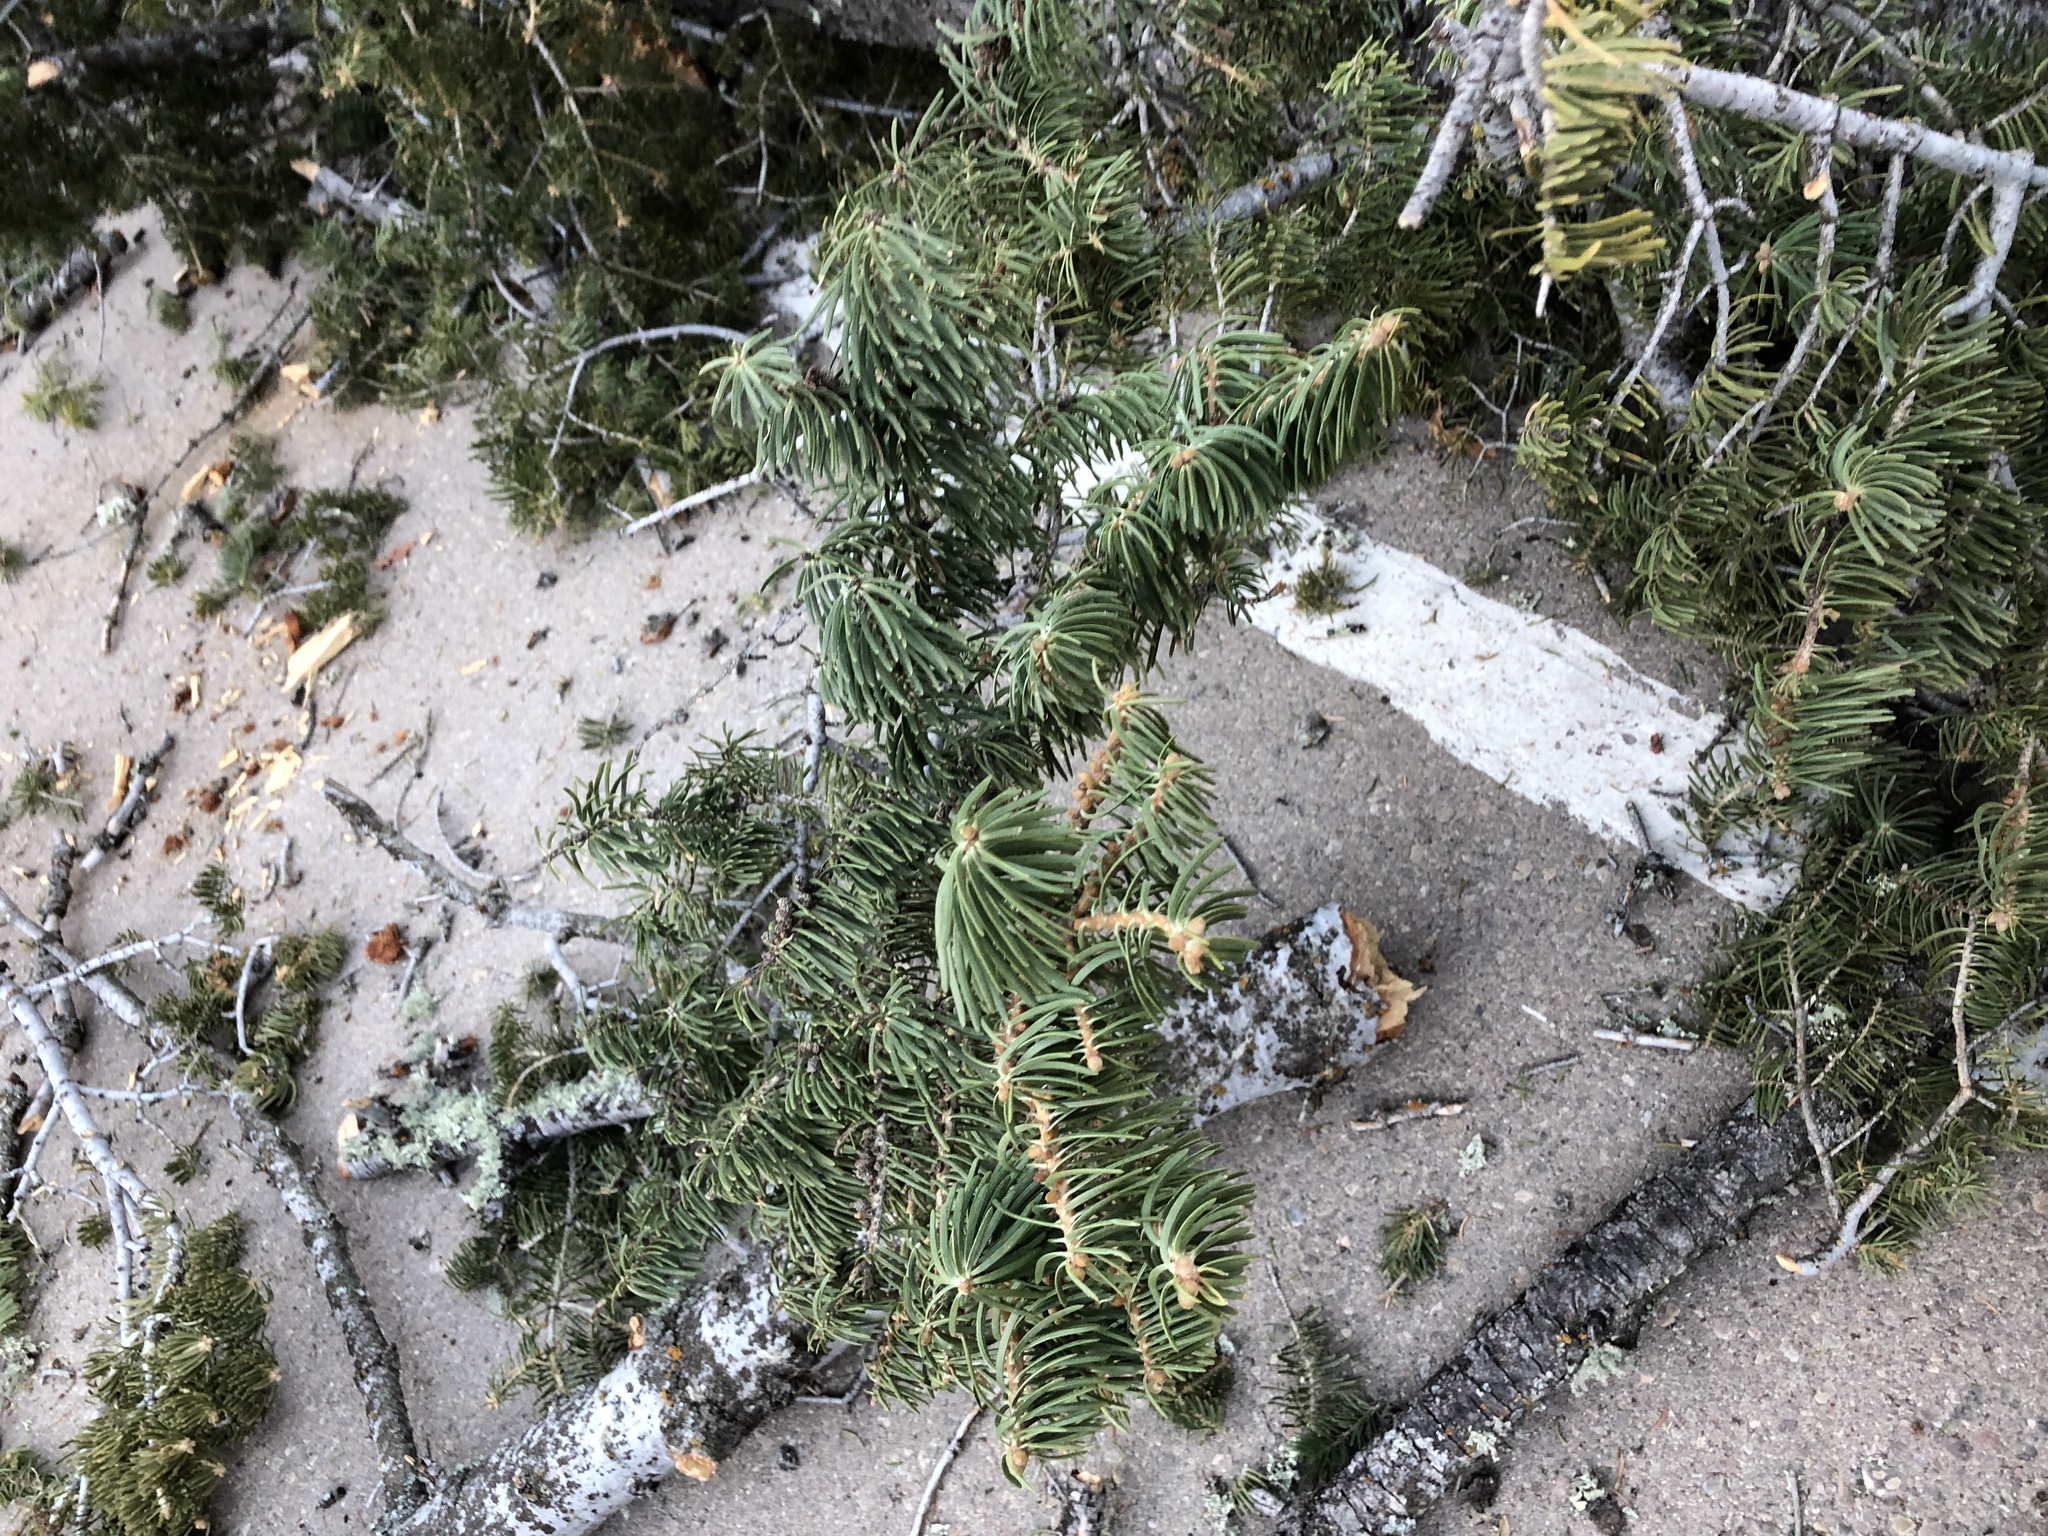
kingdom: Plantae
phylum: Tracheophyta
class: Pinopsida
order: Pinales
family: Pinaceae
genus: Abies
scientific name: Abies concolor
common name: Colorado fir
